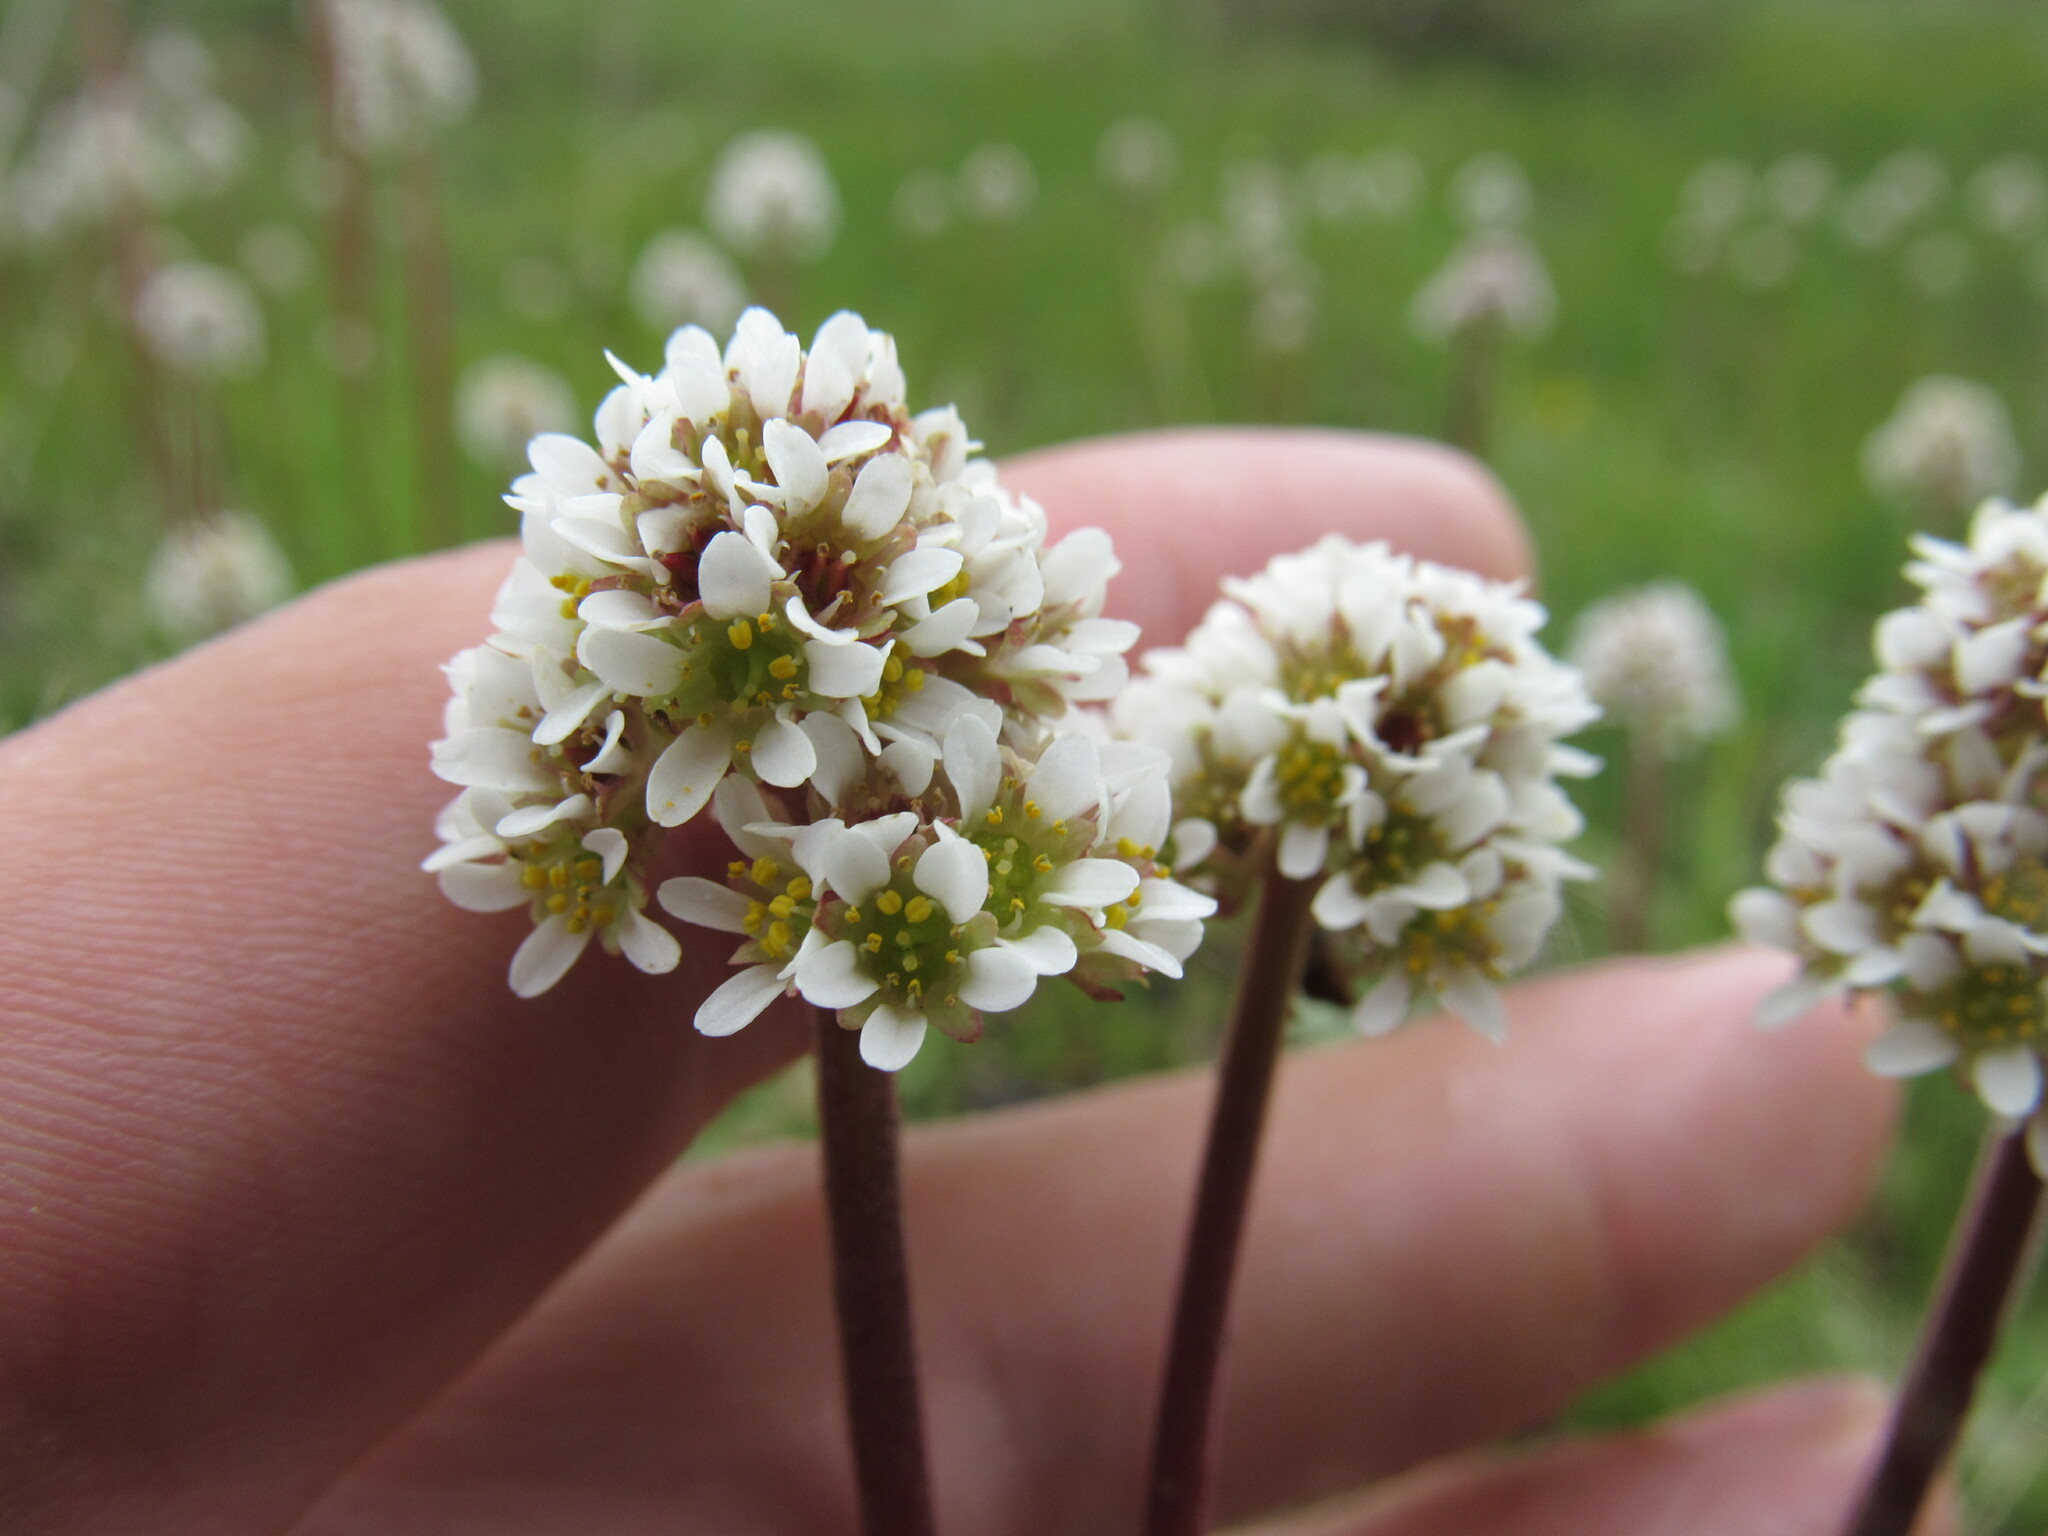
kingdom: Plantae
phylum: Tracheophyta
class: Magnoliopsida
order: Saxifragales
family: Saxifragaceae
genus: Micranthes
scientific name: Micranthes rhomboidea
